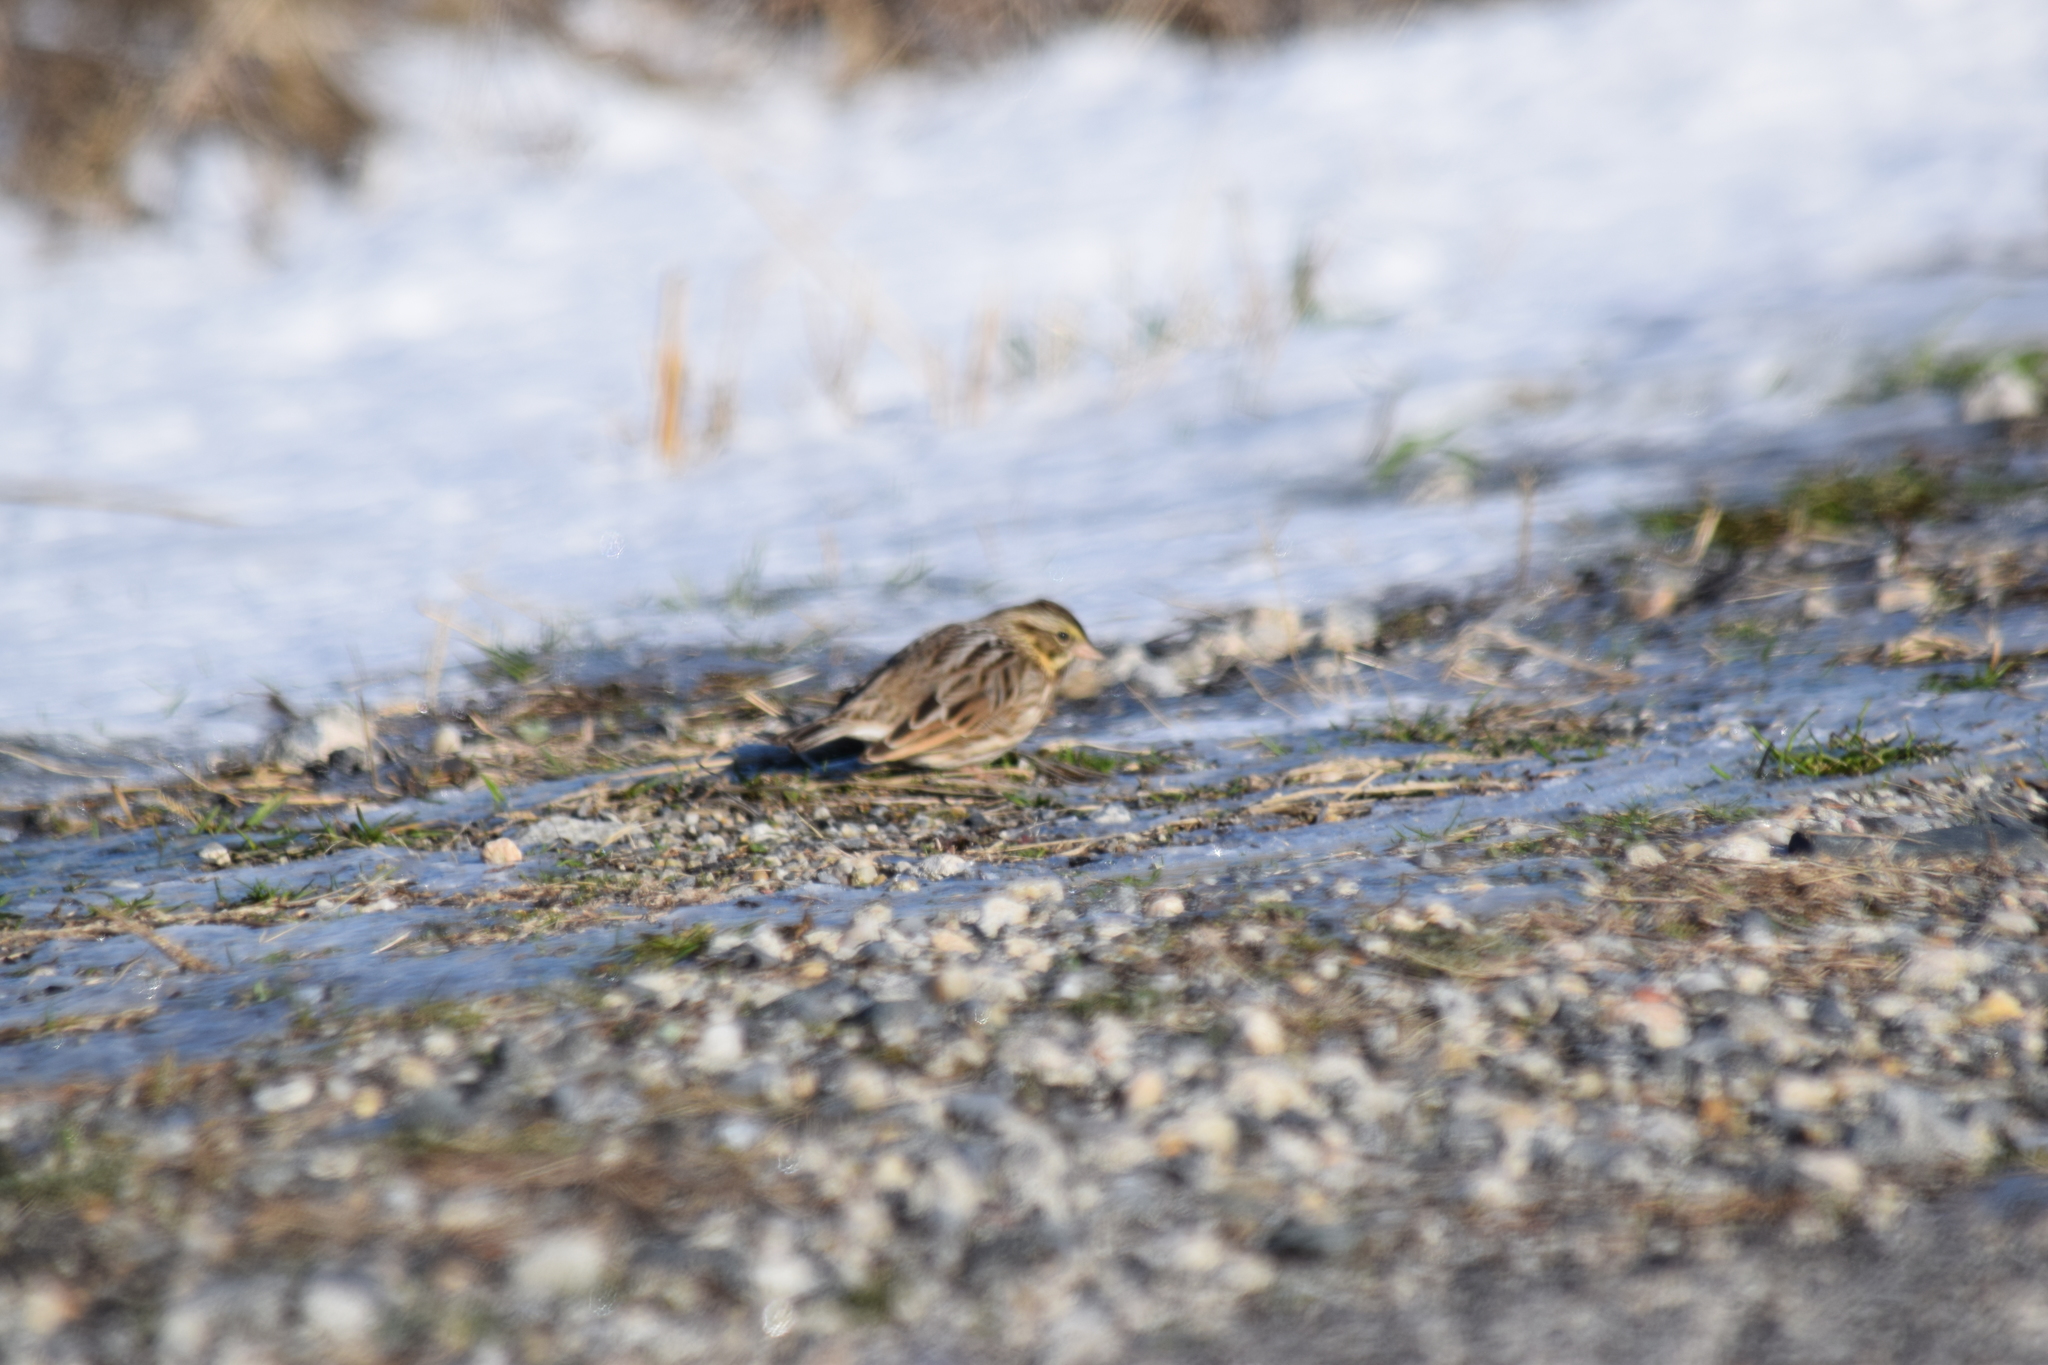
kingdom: Animalia
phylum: Chordata
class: Aves
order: Passeriformes
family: Passerellidae
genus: Passerculus
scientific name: Passerculus sandwichensis
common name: Savannah sparrow
